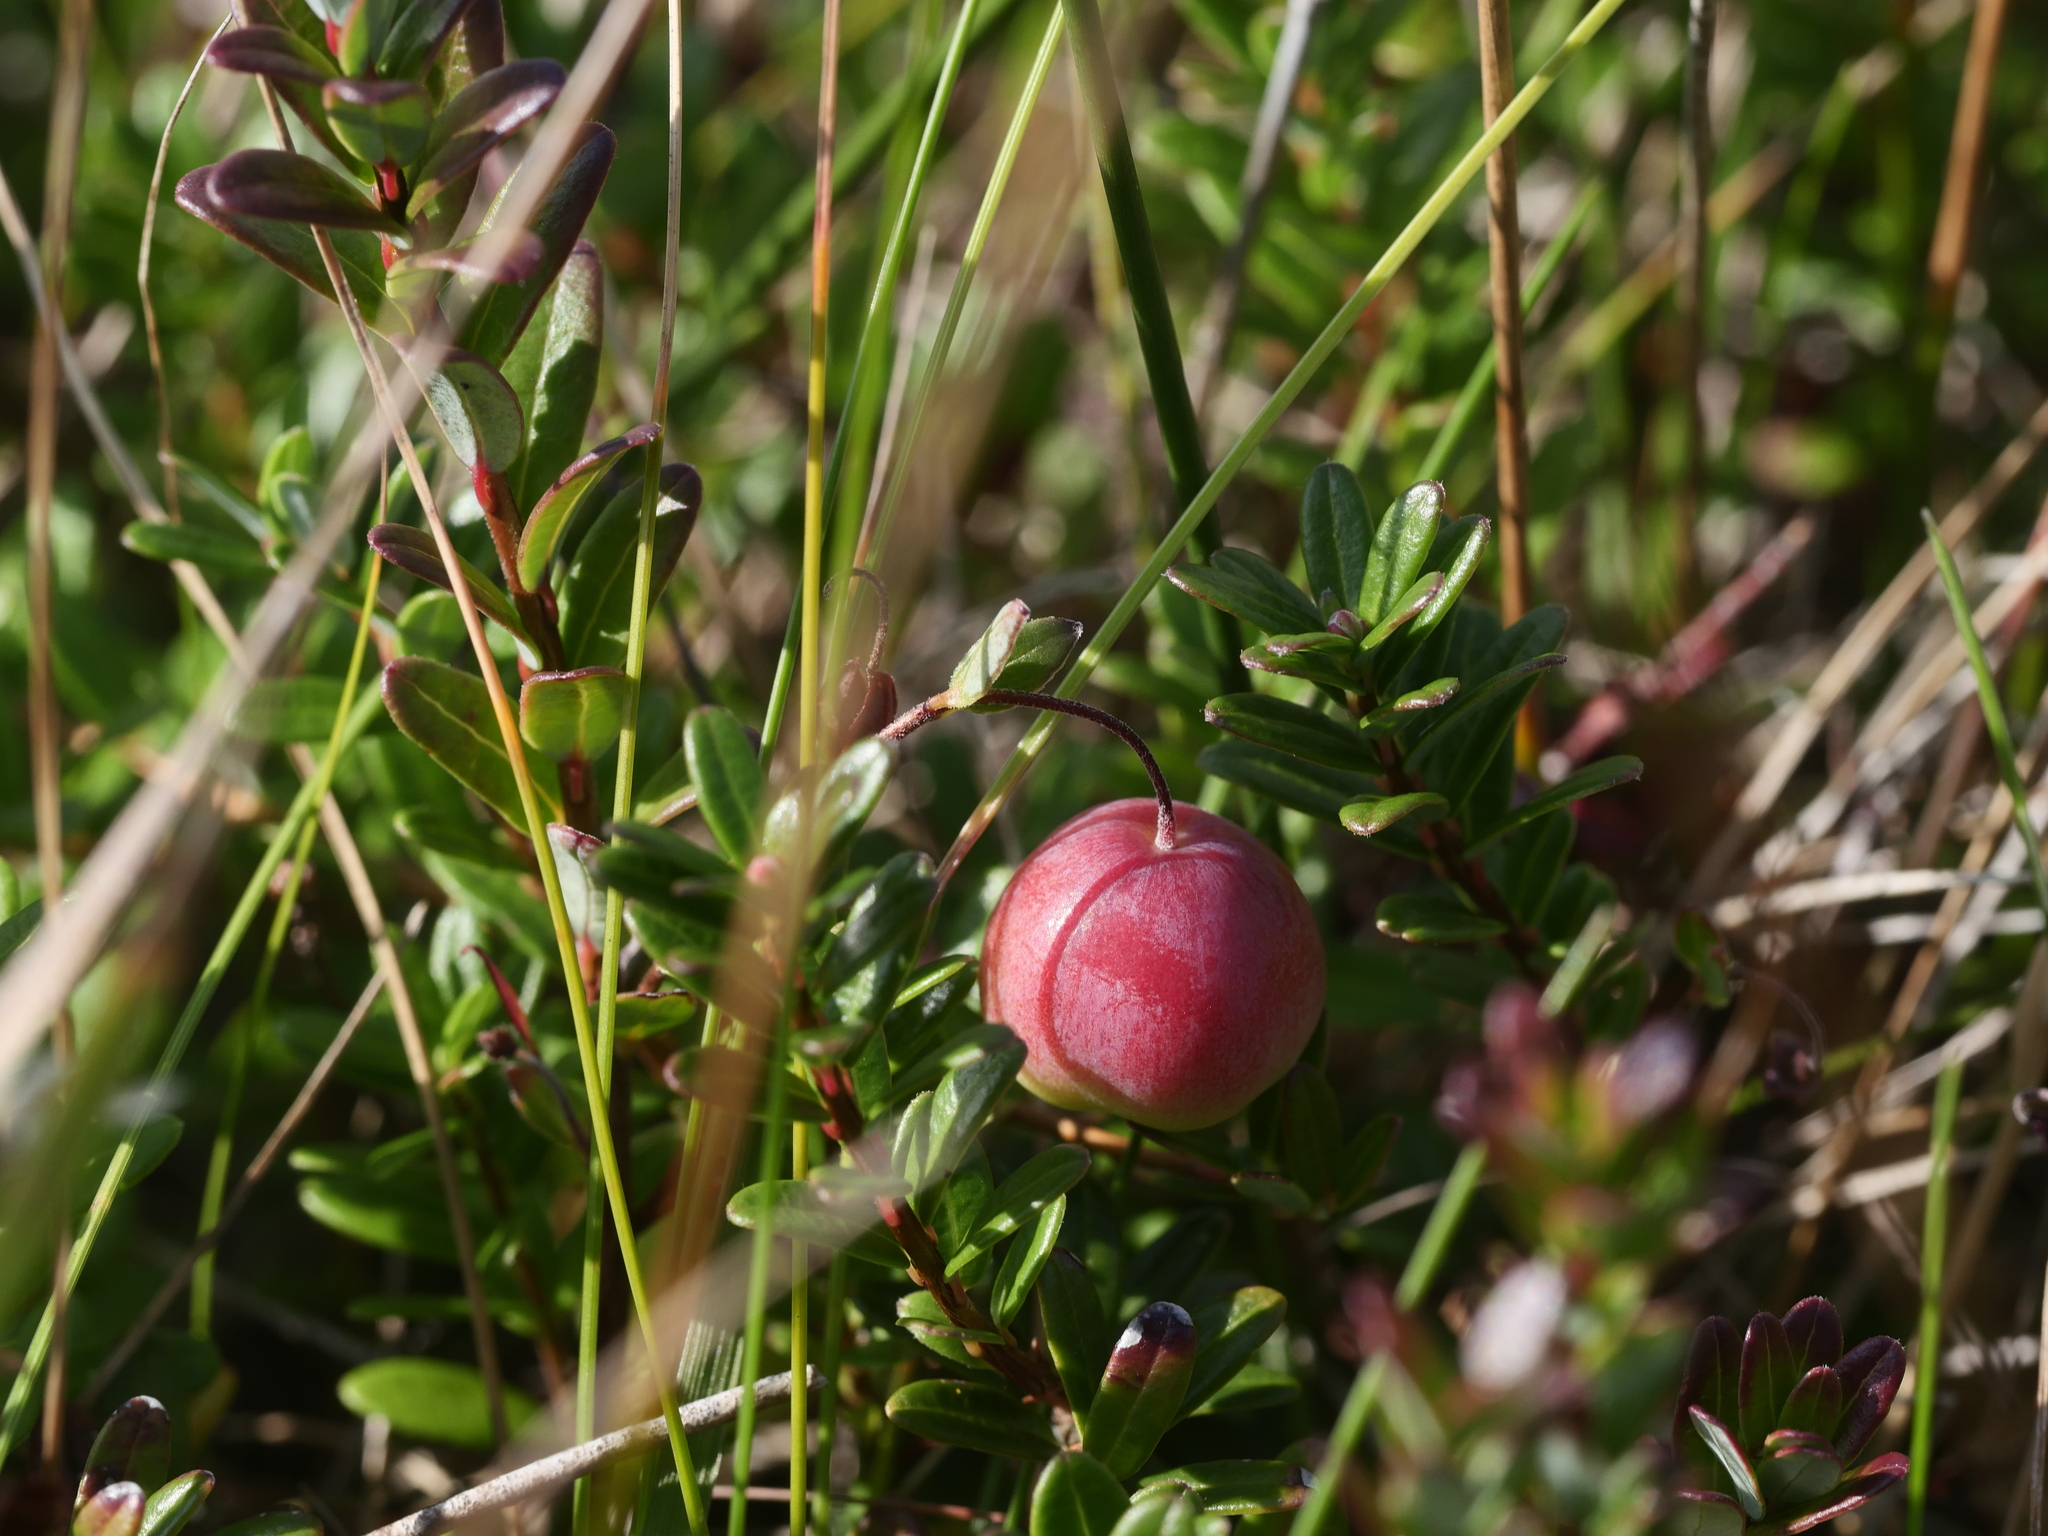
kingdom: Plantae
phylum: Tracheophyta
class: Magnoliopsida
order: Ericales
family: Ericaceae
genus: Vaccinium
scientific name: Vaccinium macrocarpon
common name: American cranberry
